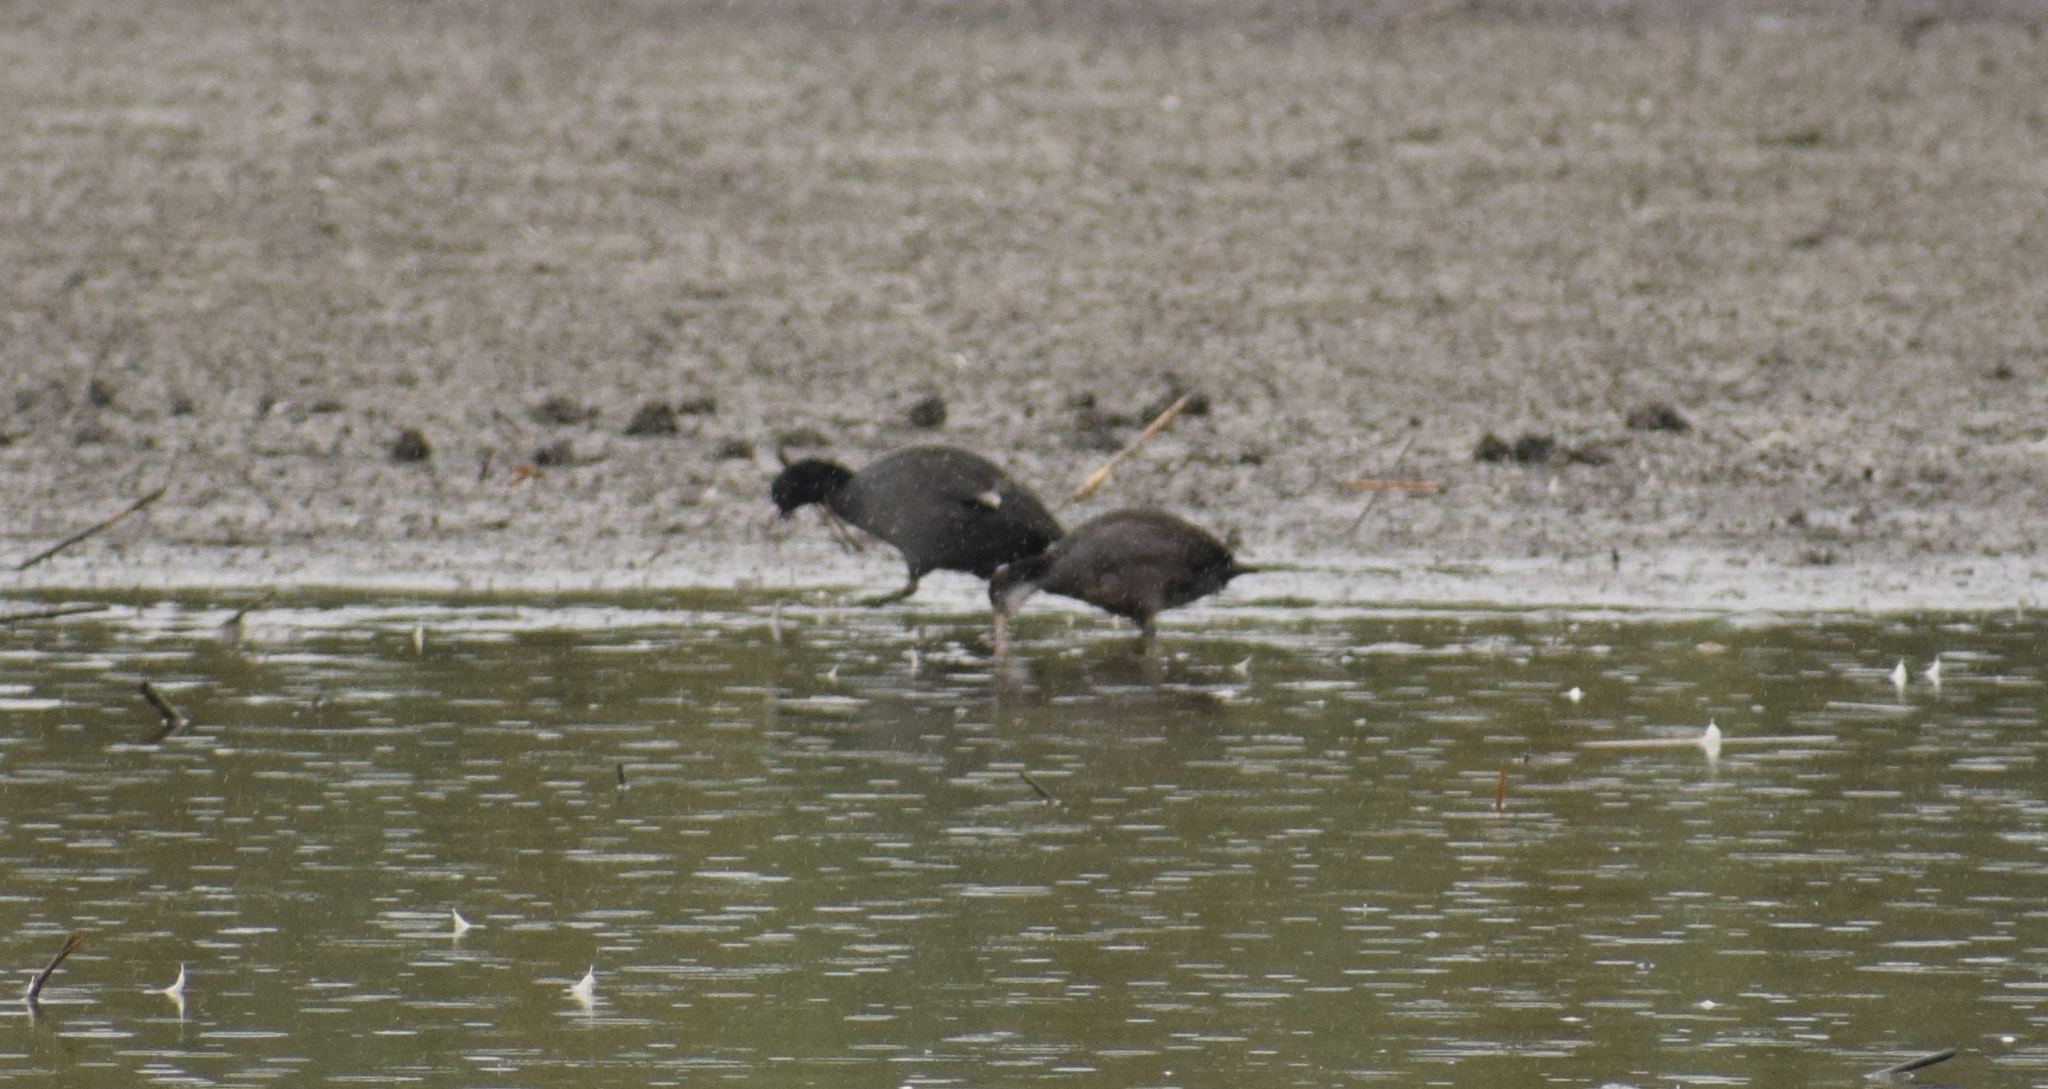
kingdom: Animalia
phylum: Chordata
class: Aves
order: Gruiformes
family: Rallidae
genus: Fulica
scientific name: Fulica atra
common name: Eurasian coot
